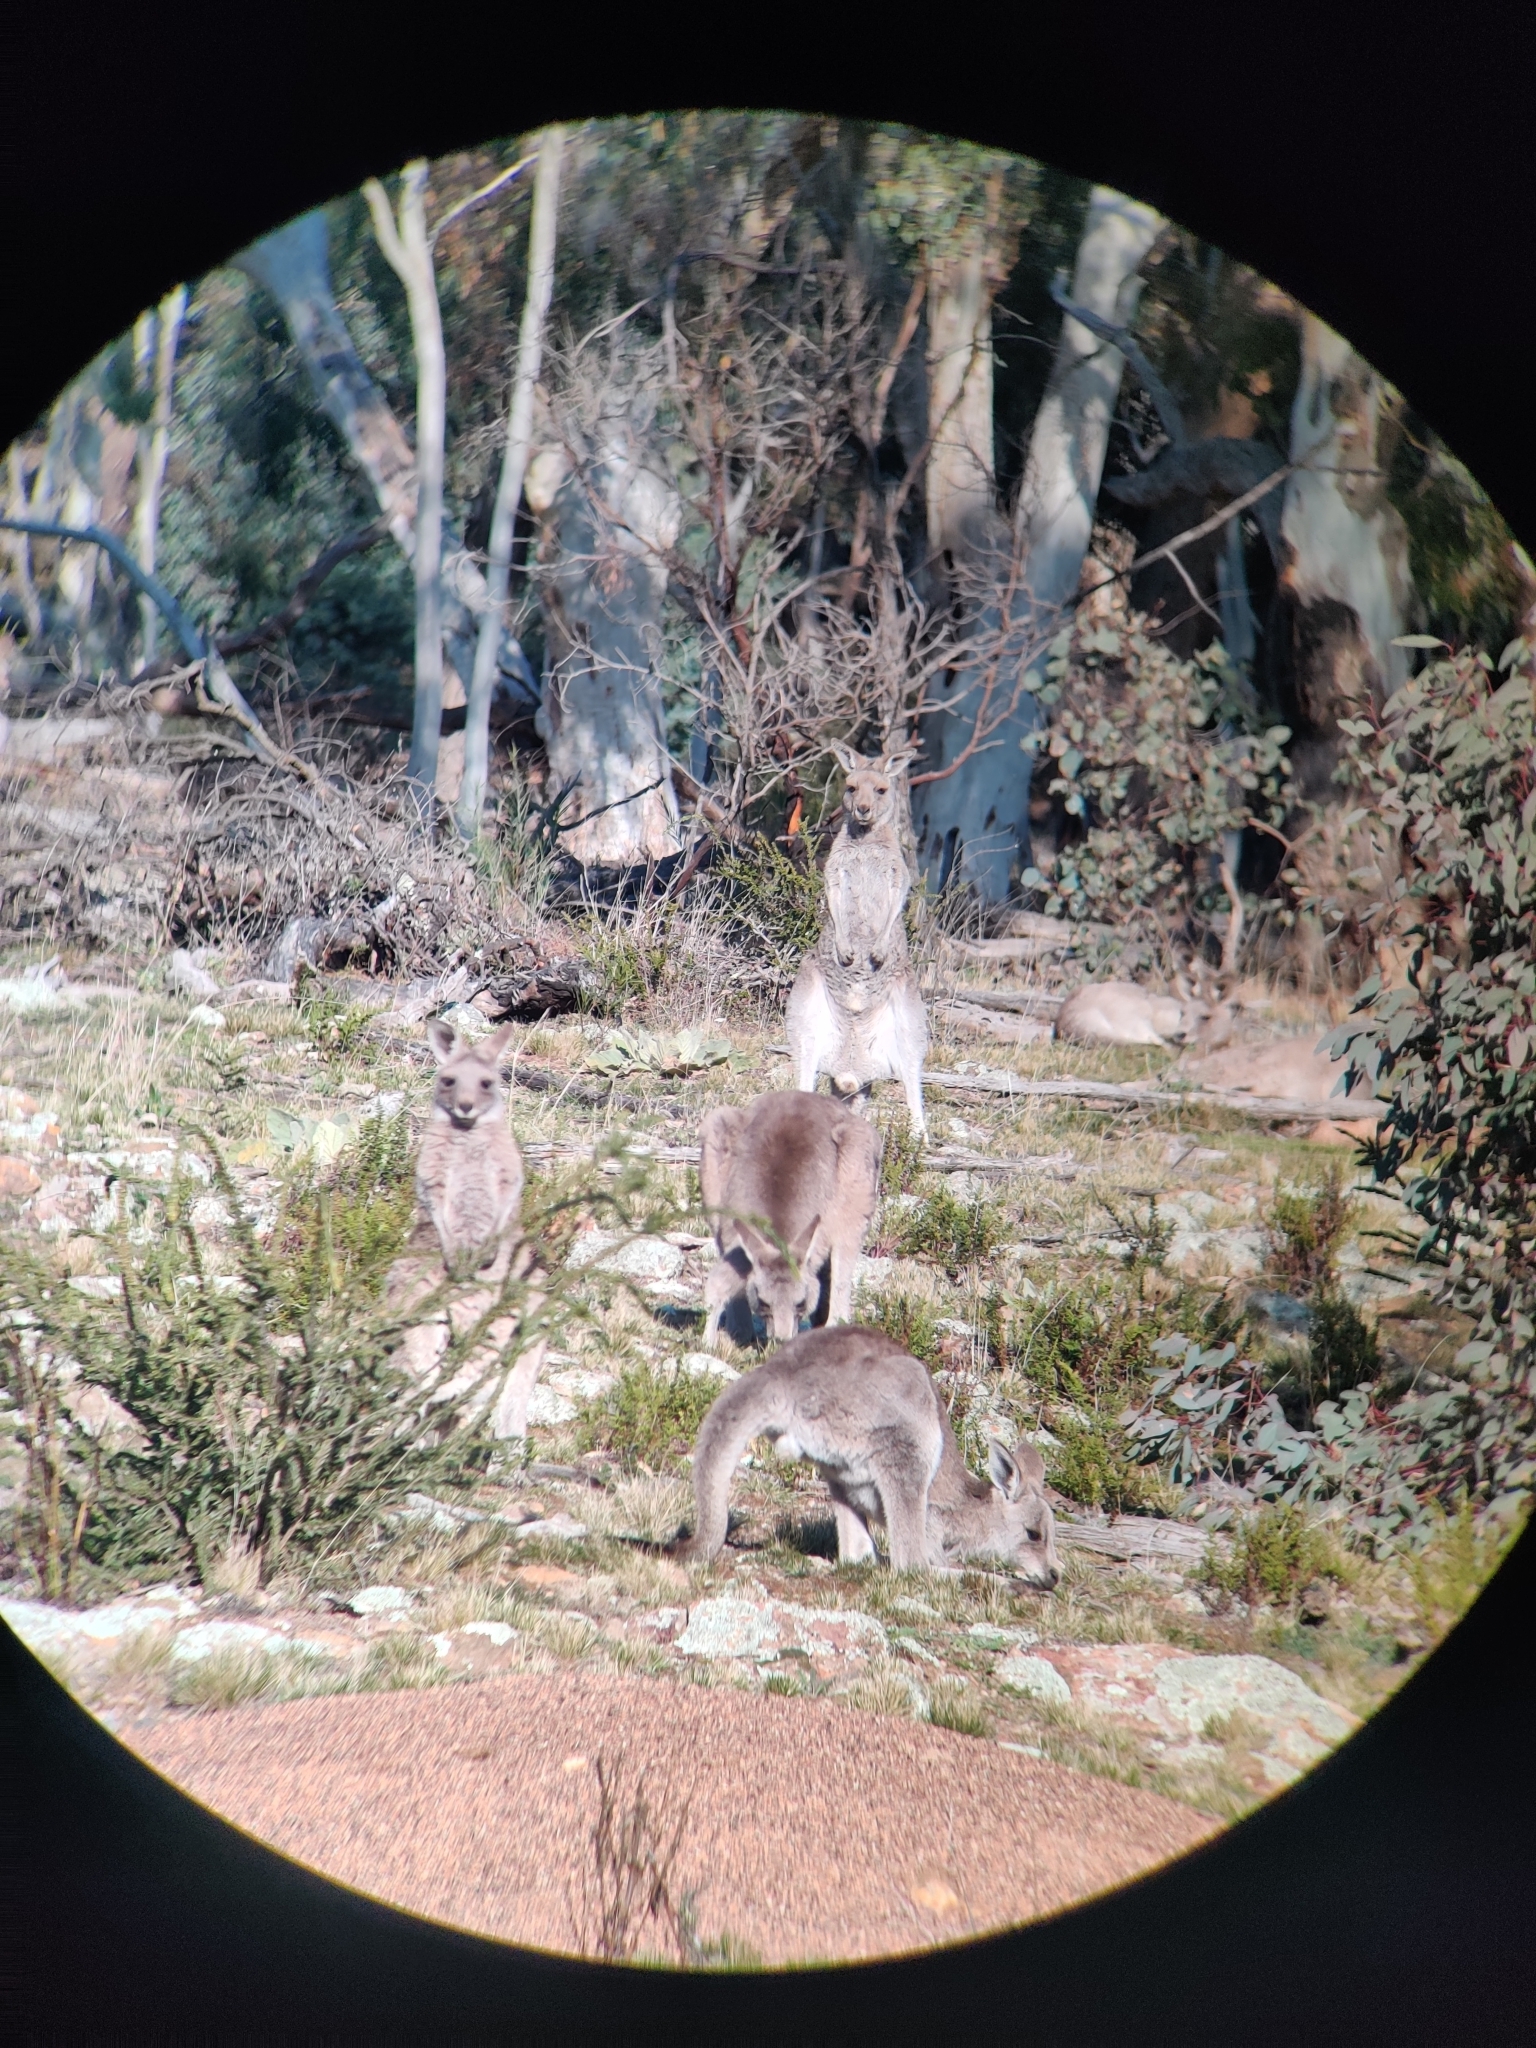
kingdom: Animalia
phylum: Chordata
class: Mammalia
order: Diprotodontia
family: Macropodidae
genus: Macropus
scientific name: Macropus giganteus
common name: Eastern grey kangaroo
